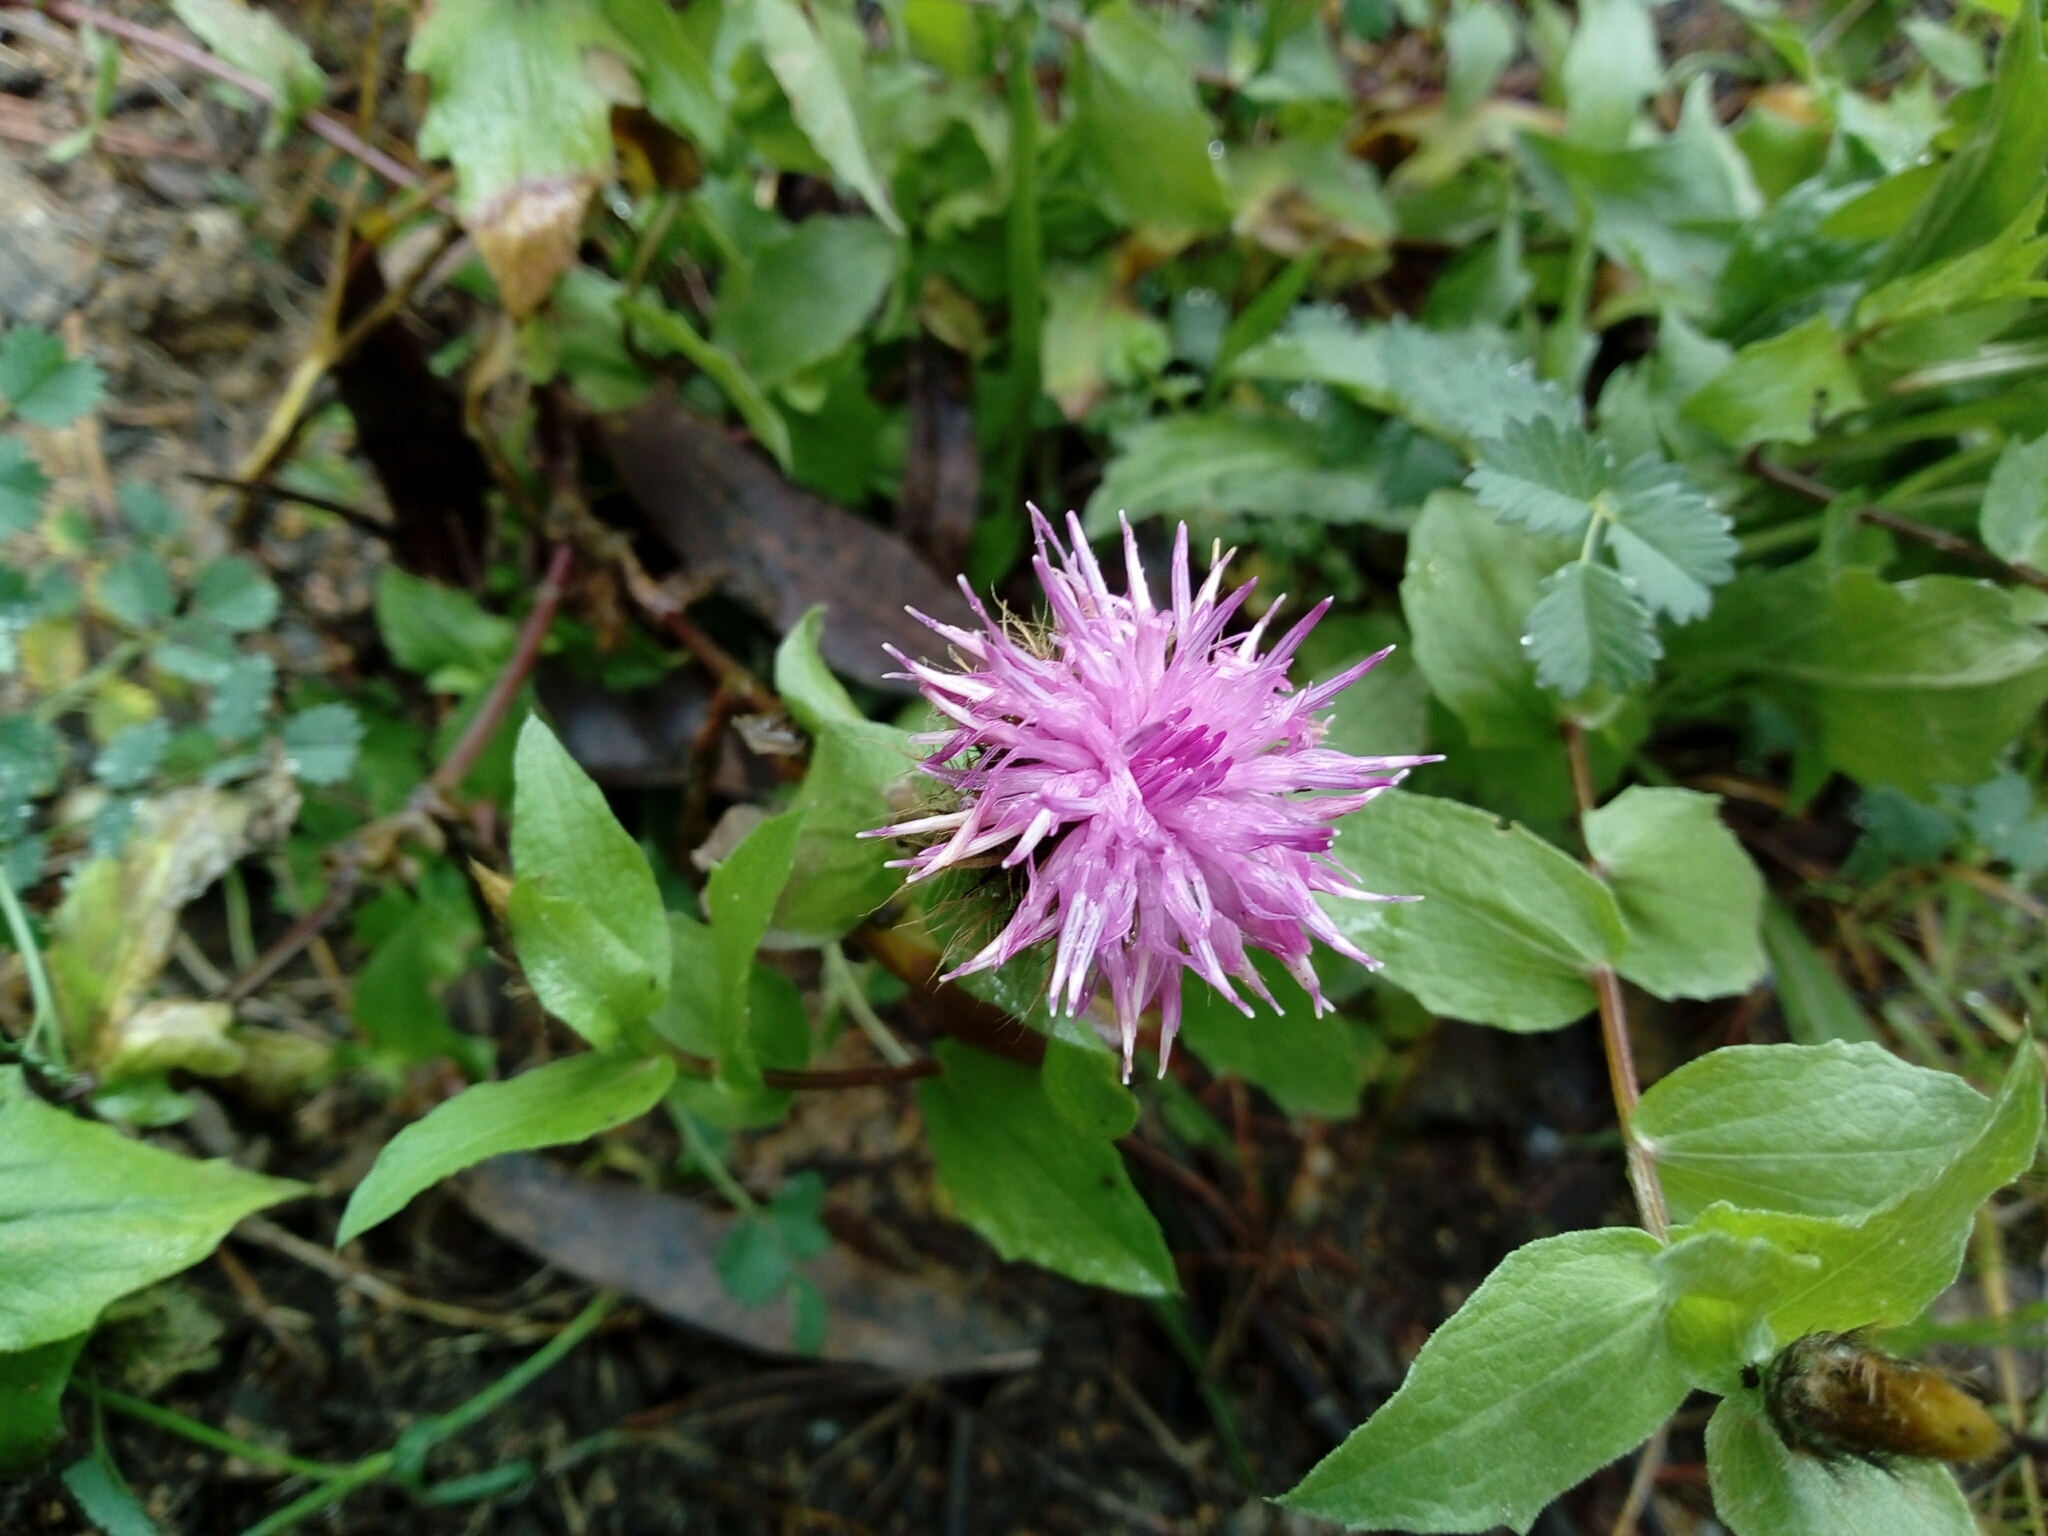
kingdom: Plantae
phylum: Tracheophyta
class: Magnoliopsida
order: Asterales
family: Asteraceae
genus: Centaurea
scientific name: Centaurea pectinata
